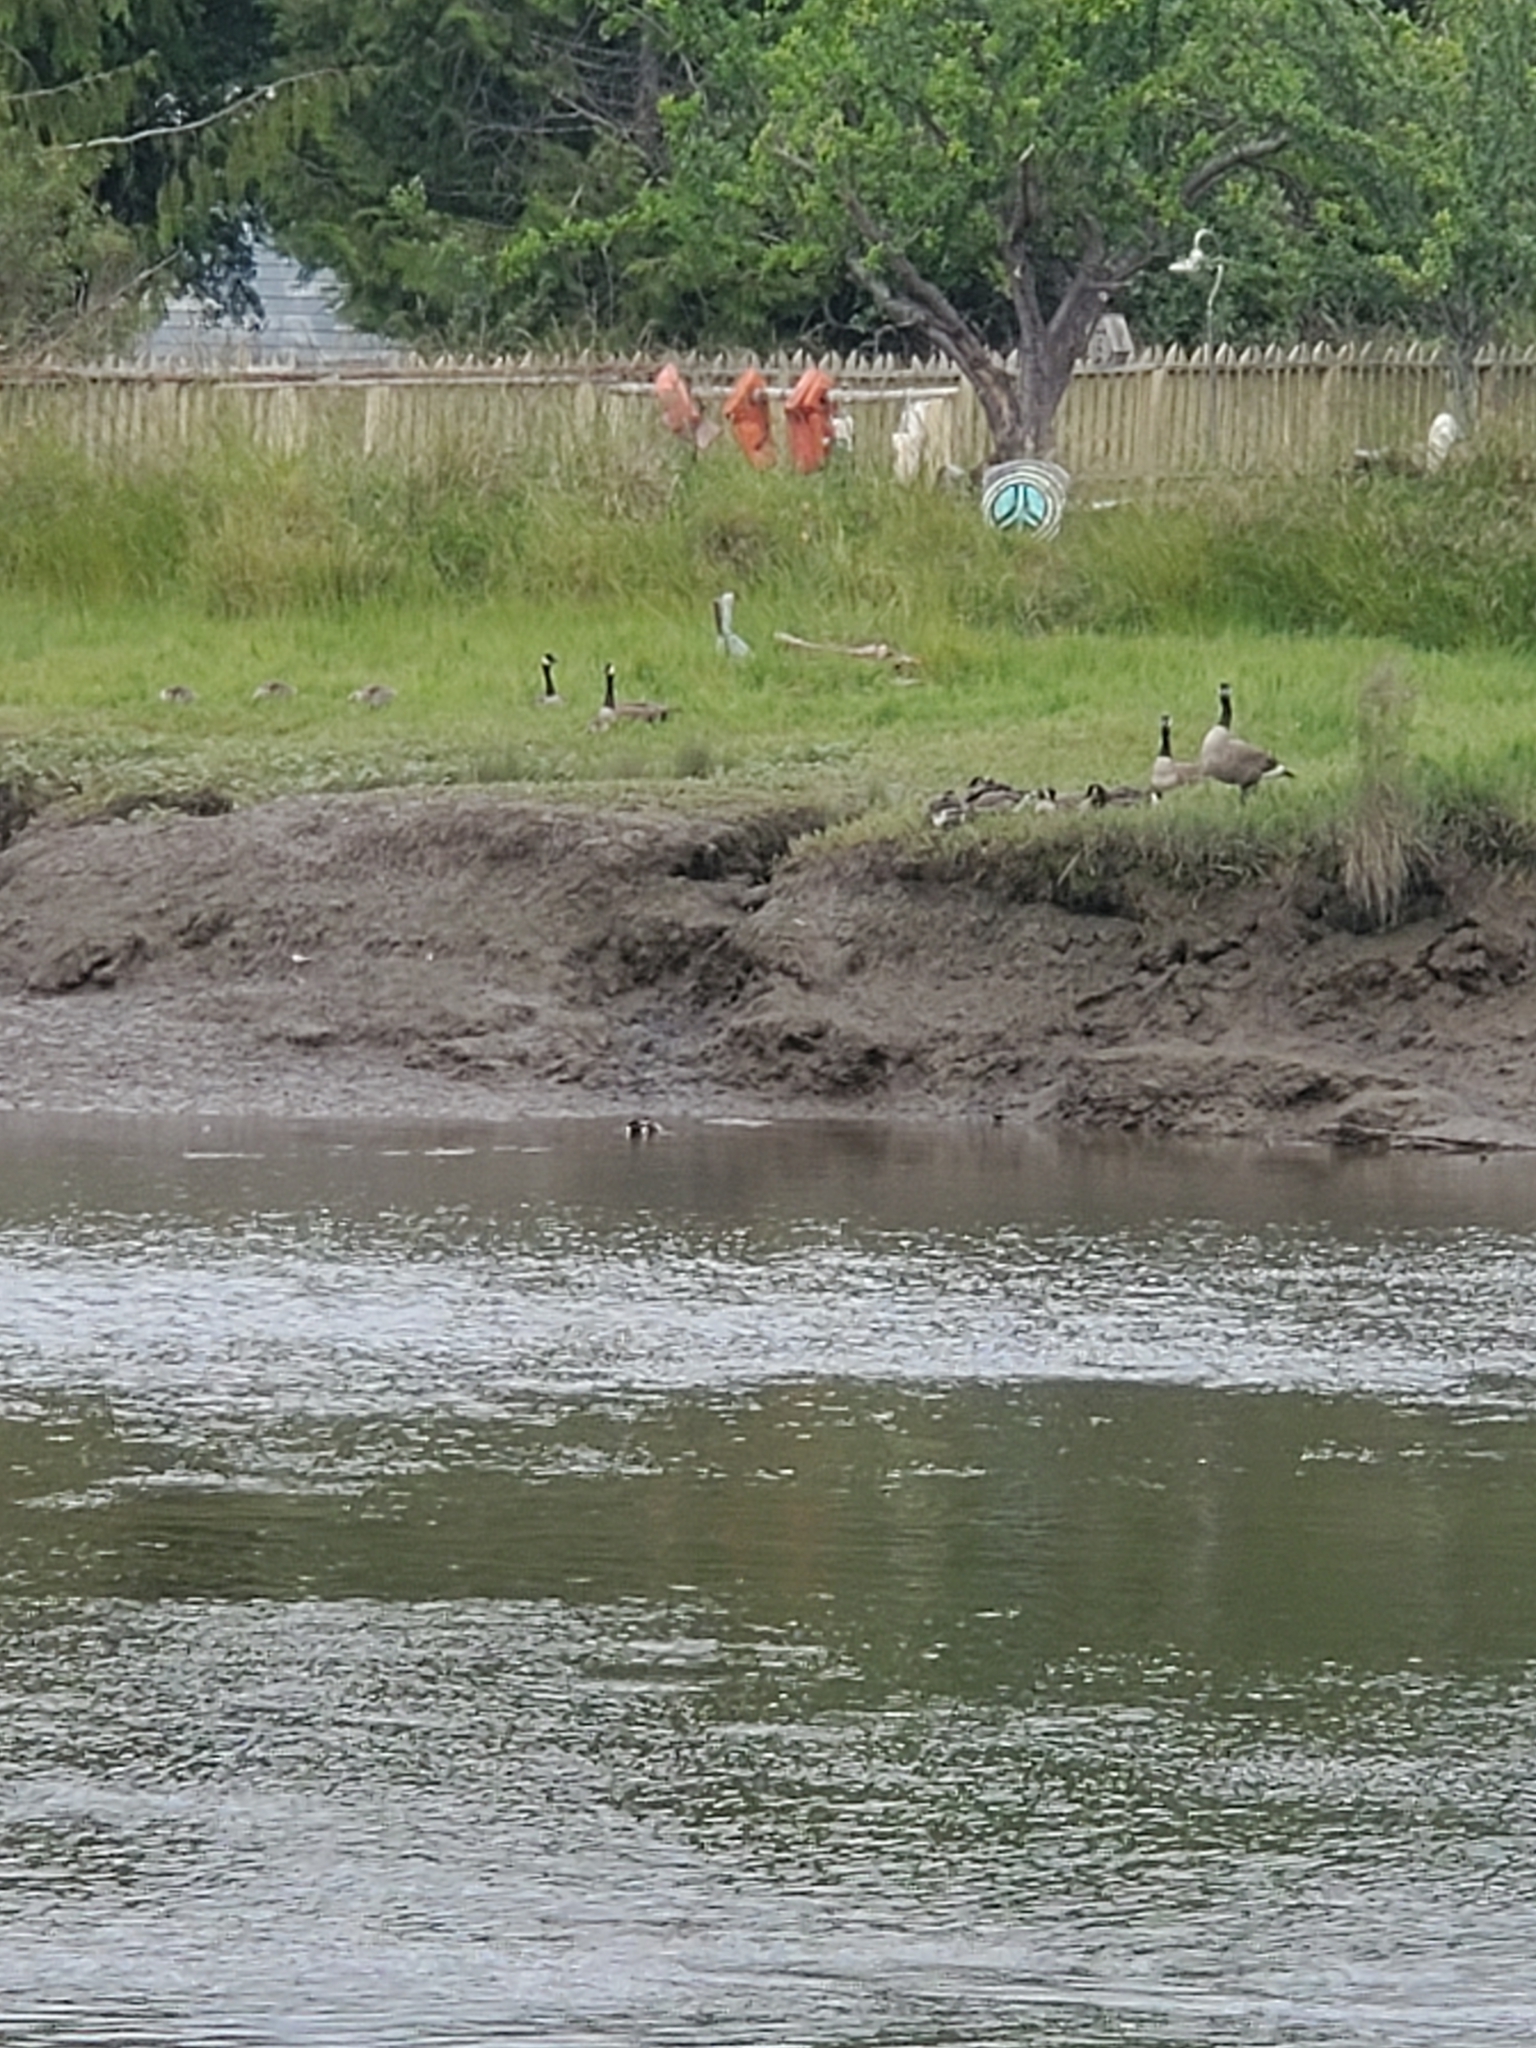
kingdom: Animalia
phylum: Chordata
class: Aves
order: Anseriformes
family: Anatidae
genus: Branta
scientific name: Branta canadensis
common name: Canada goose
